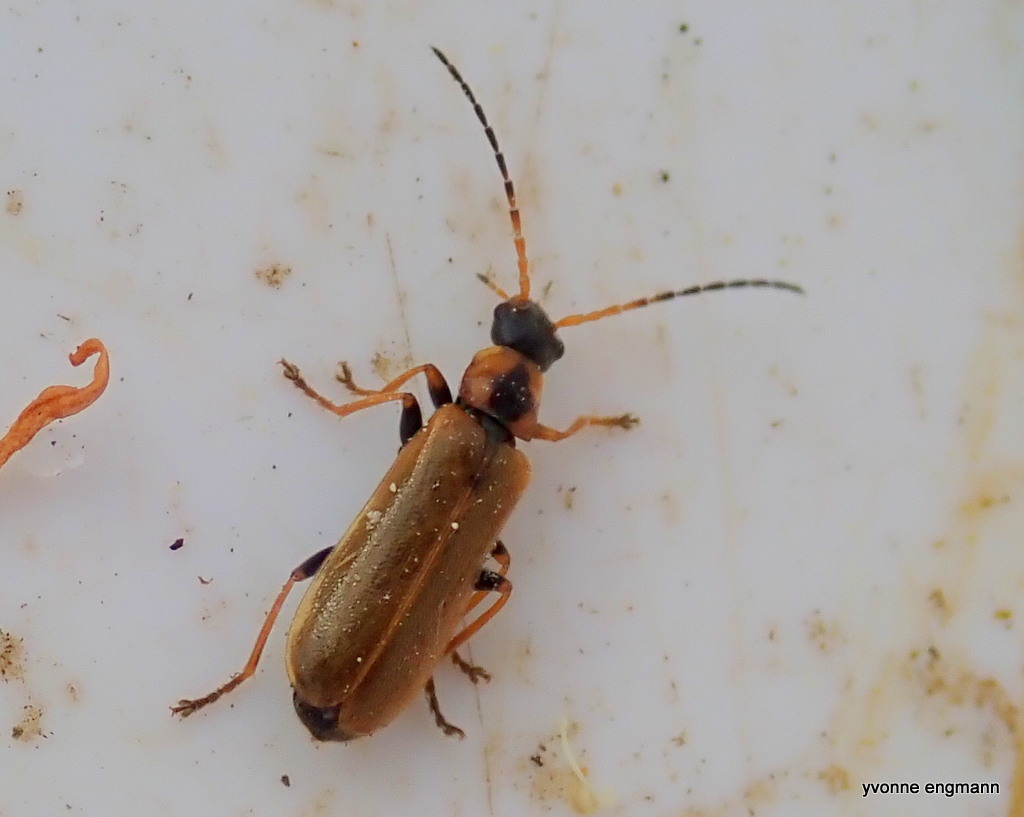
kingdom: Animalia
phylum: Arthropoda
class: Insecta
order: Coleoptera
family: Cantharidae
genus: Rhagonycha
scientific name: Rhagonycha nigriventris
